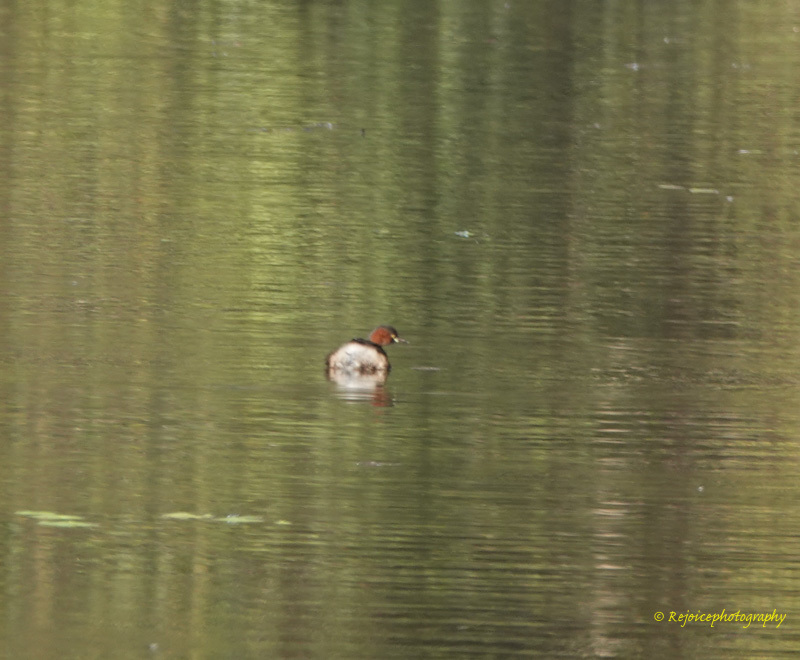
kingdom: Animalia
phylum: Chordata
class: Aves
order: Podicipediformes
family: Podicipedidae
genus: Tachybaptus
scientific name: Tachybaptus ruficollis
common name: Little grebe
